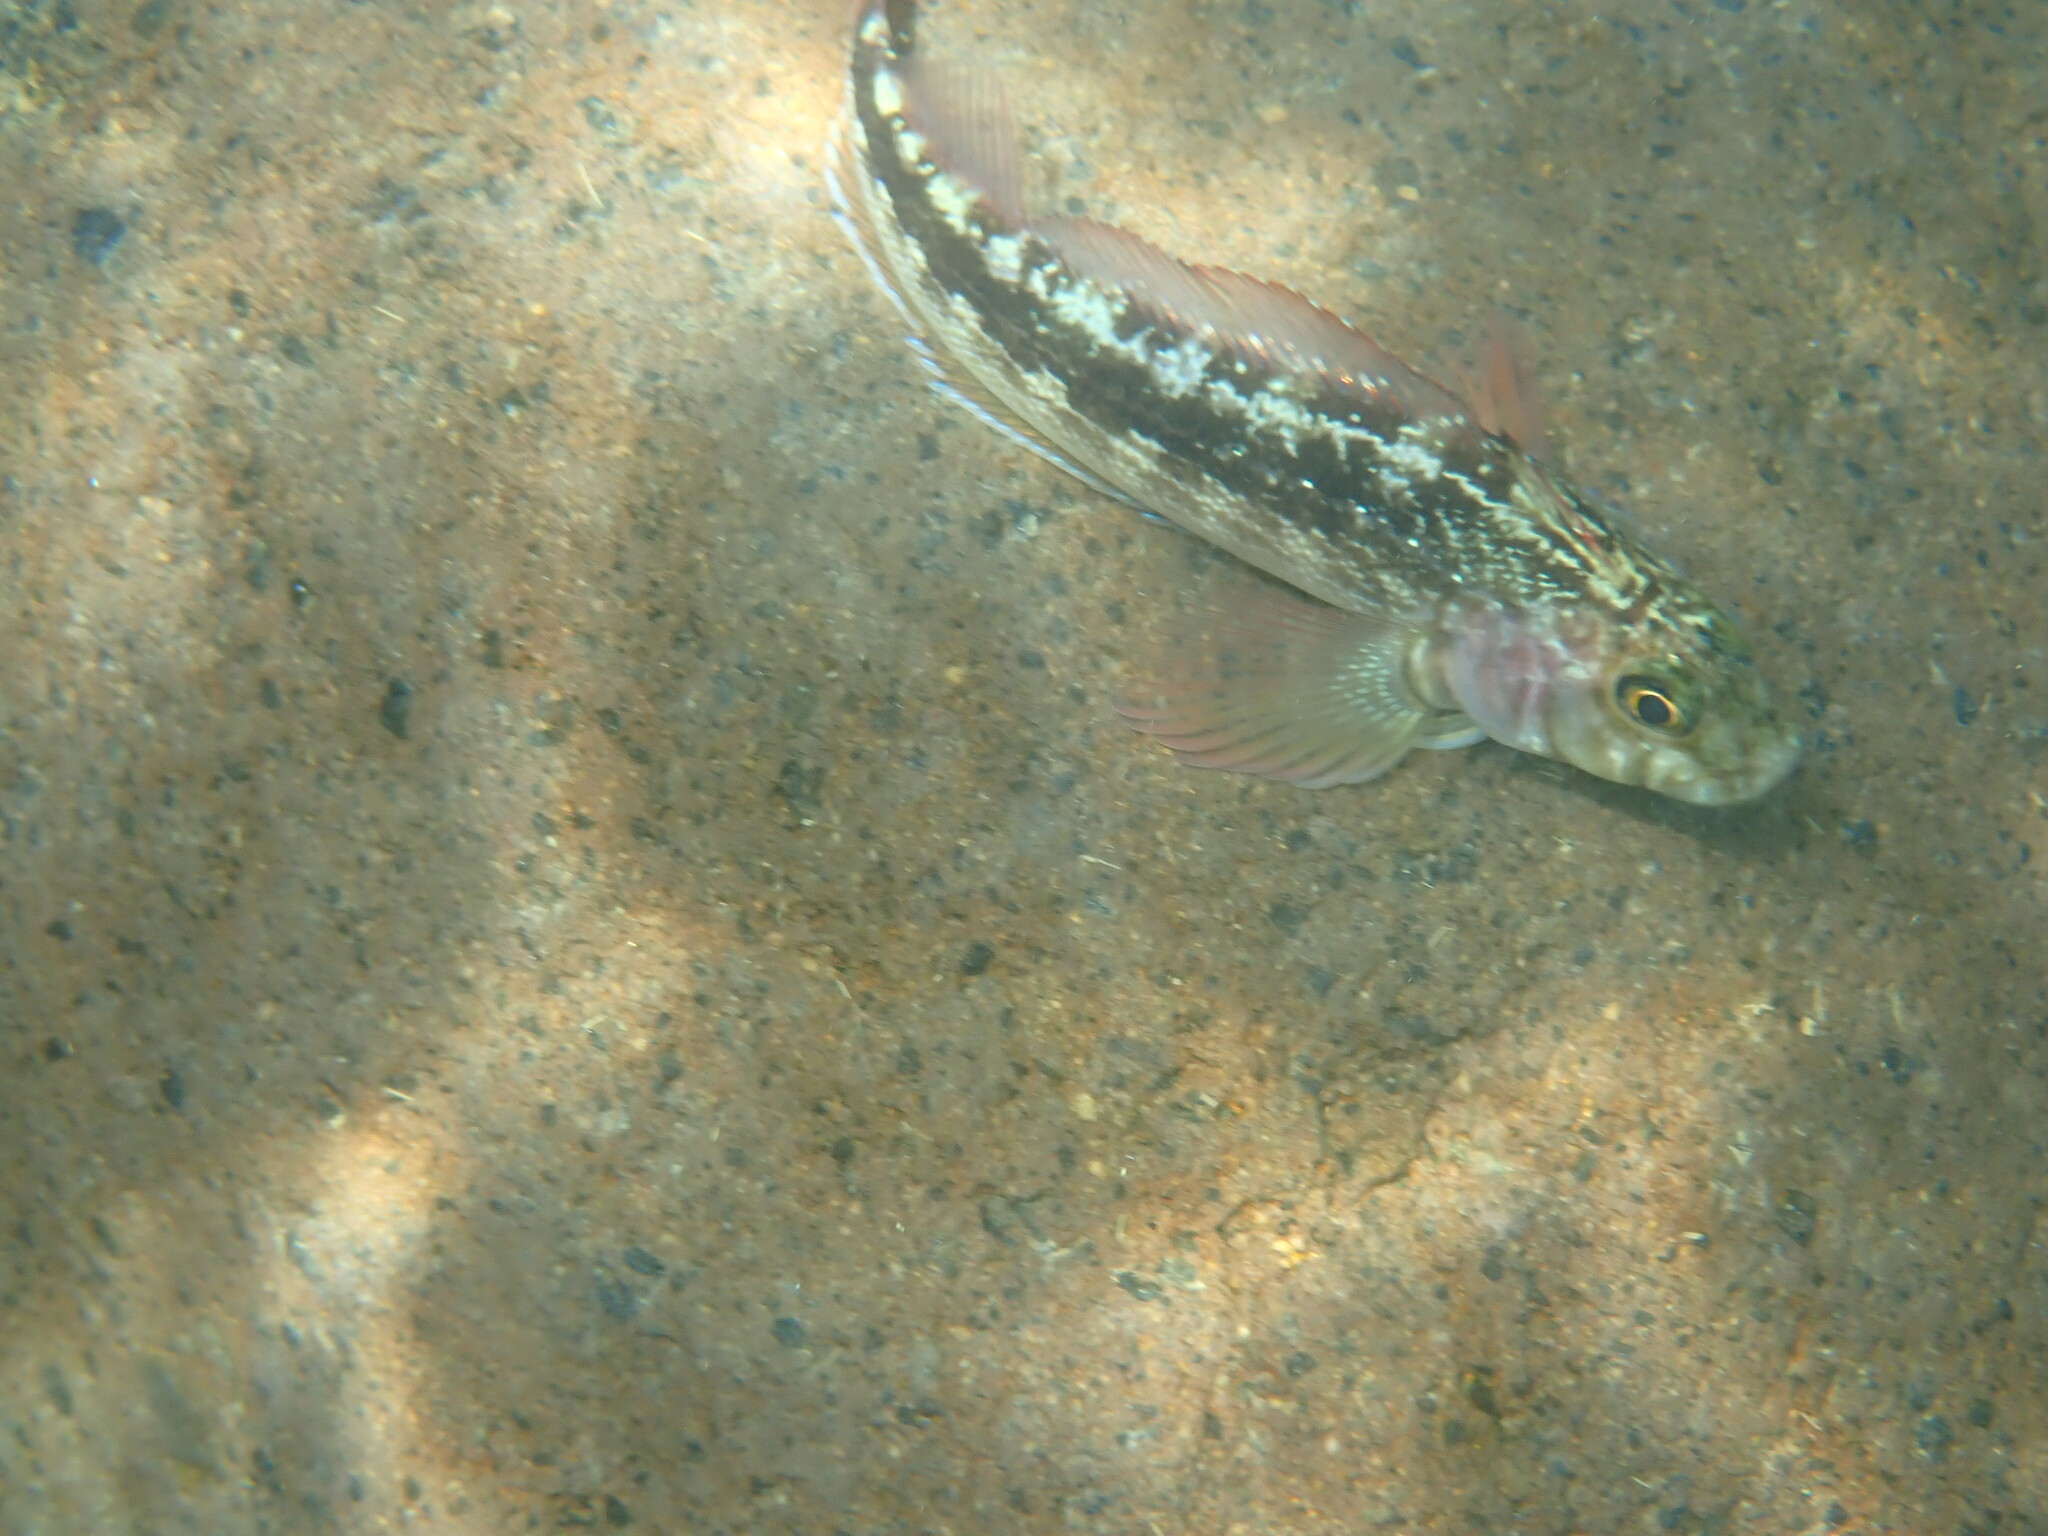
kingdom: Animalia
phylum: Chordata
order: Perciformes
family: Tripterygiidae
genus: Forsterygion
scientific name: Forsterygion varium
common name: Variable triplefin
